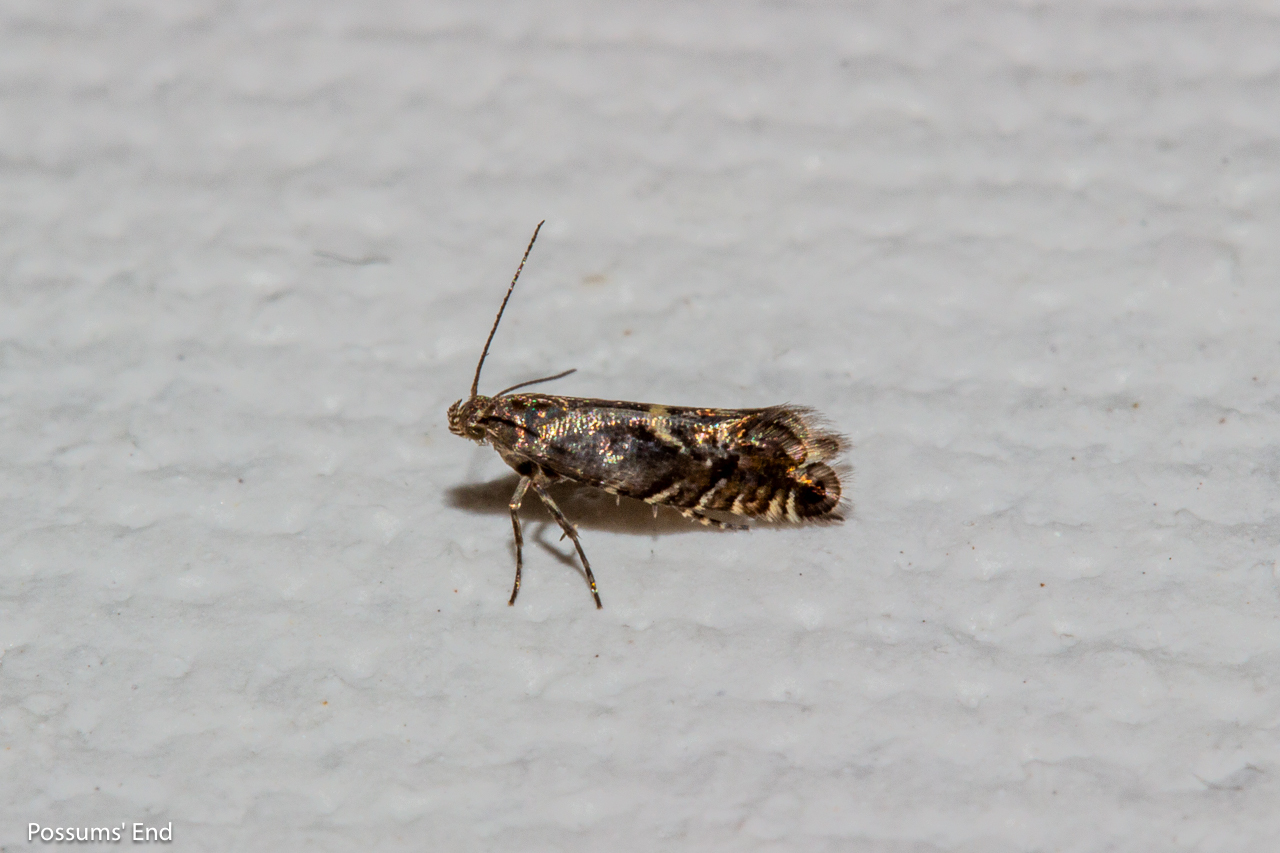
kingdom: Animalia
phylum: Arthropoda
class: Insecta
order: Lepidoptera
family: Glyphipterigidae
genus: Glyphipterix
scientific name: Glyphipterix nephoptera
